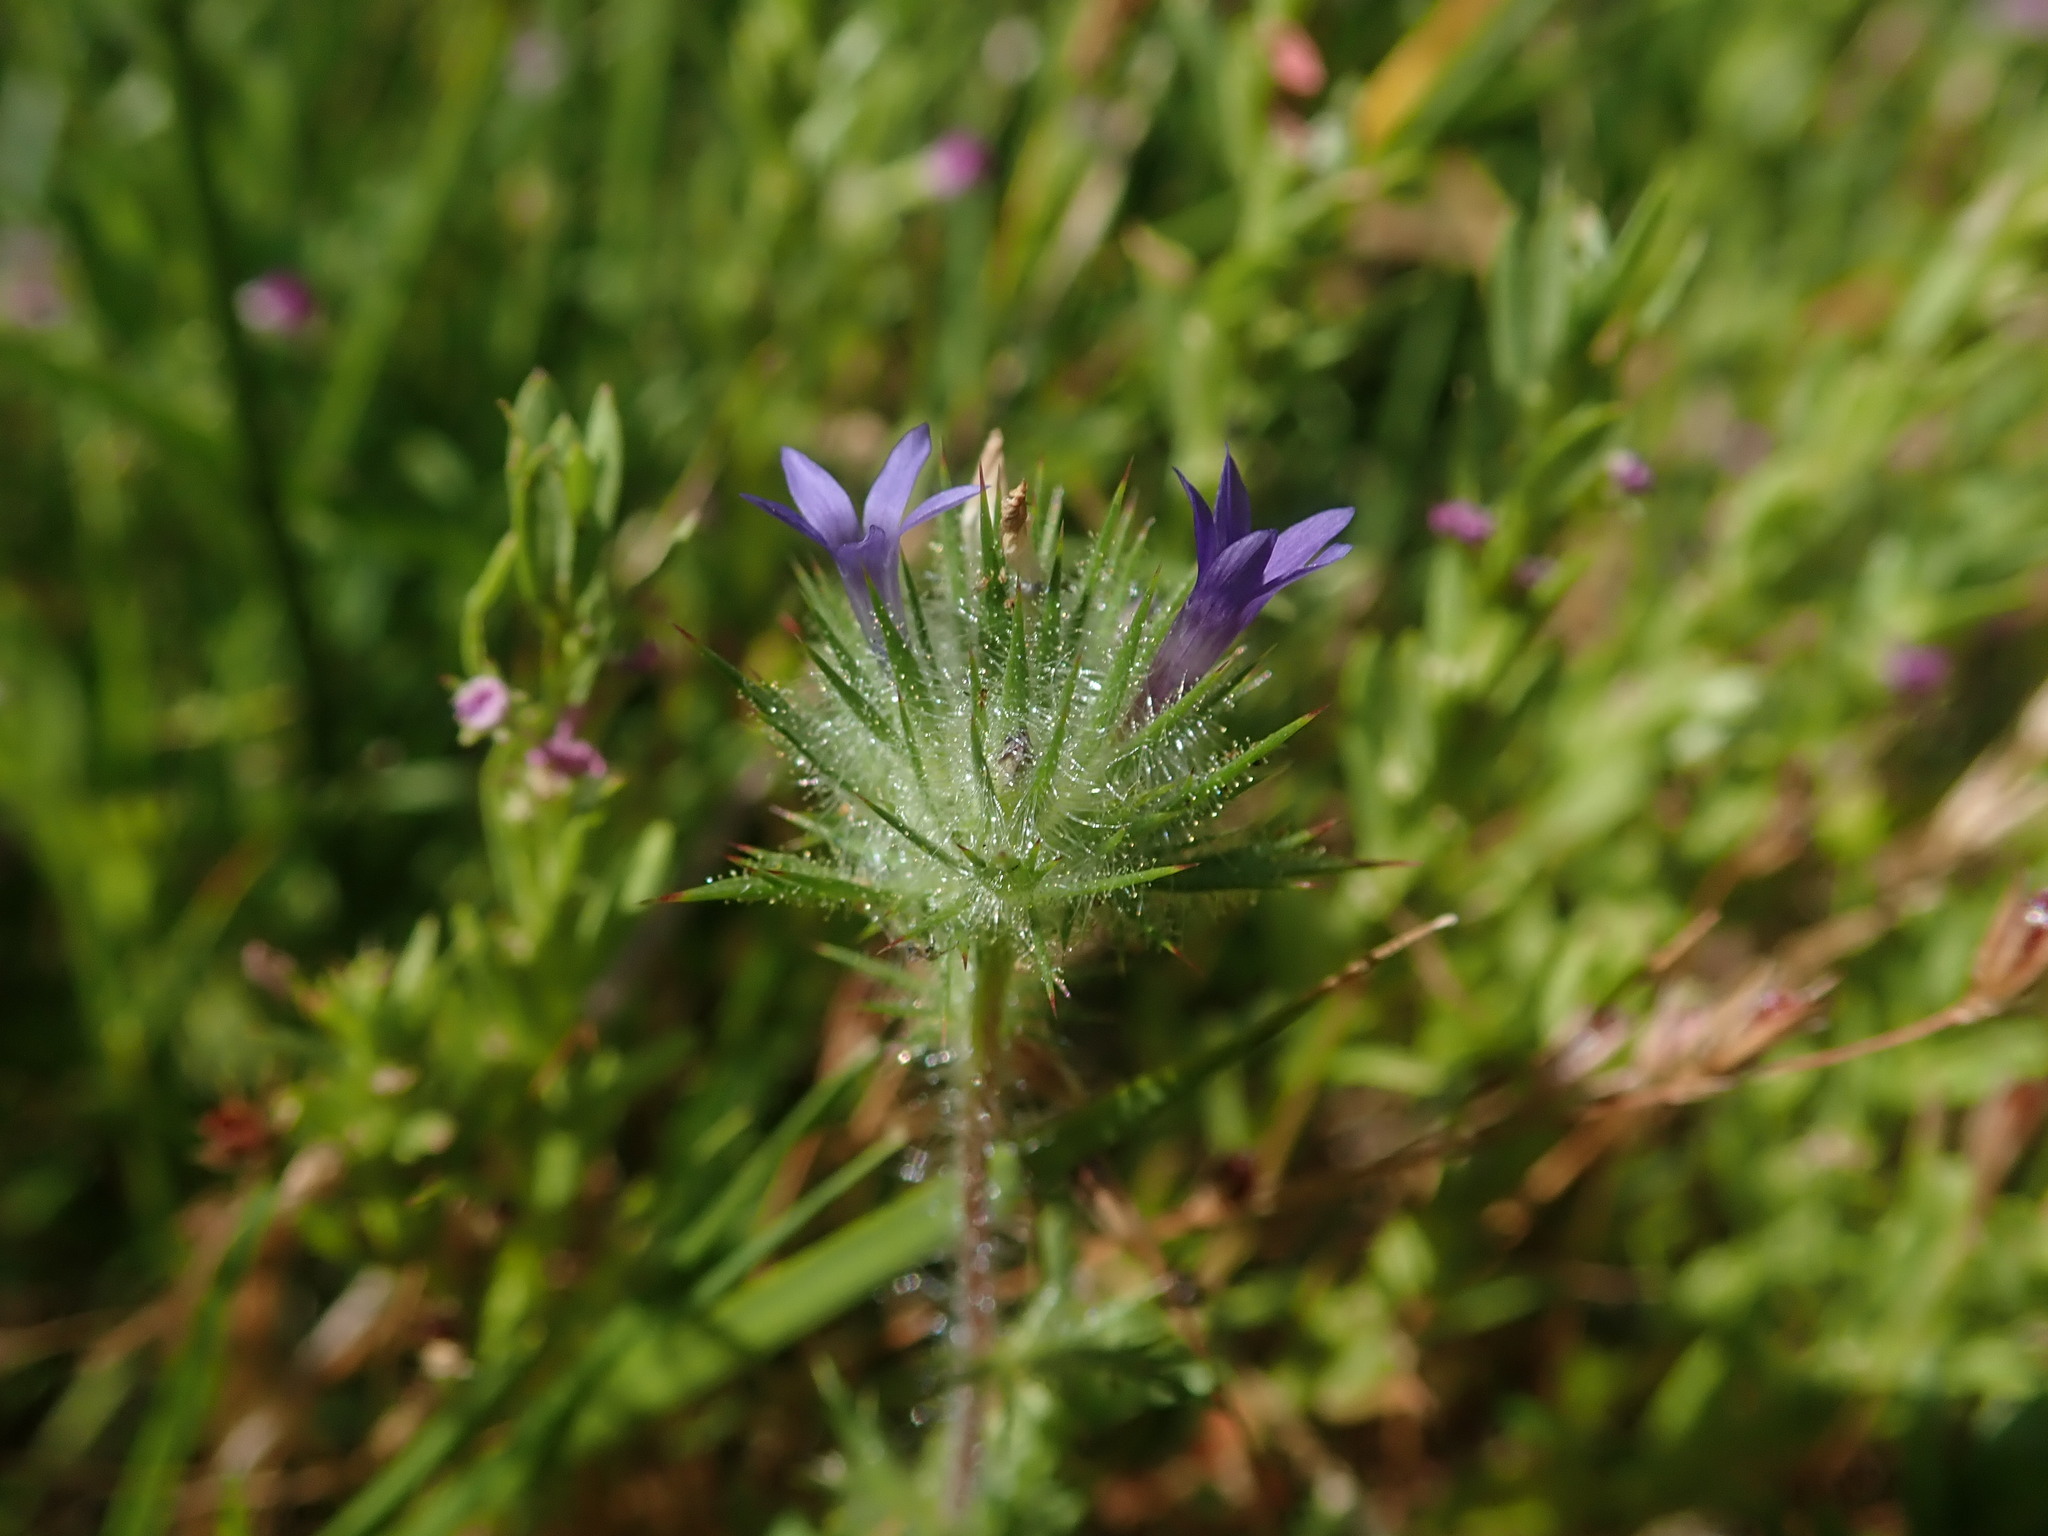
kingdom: Plantae
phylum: Tracheophyta
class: Magnoliopsida
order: Ericales
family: Polemoniaceae
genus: Navarretia
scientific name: Navarretia squarrosa
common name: Skunkweed
